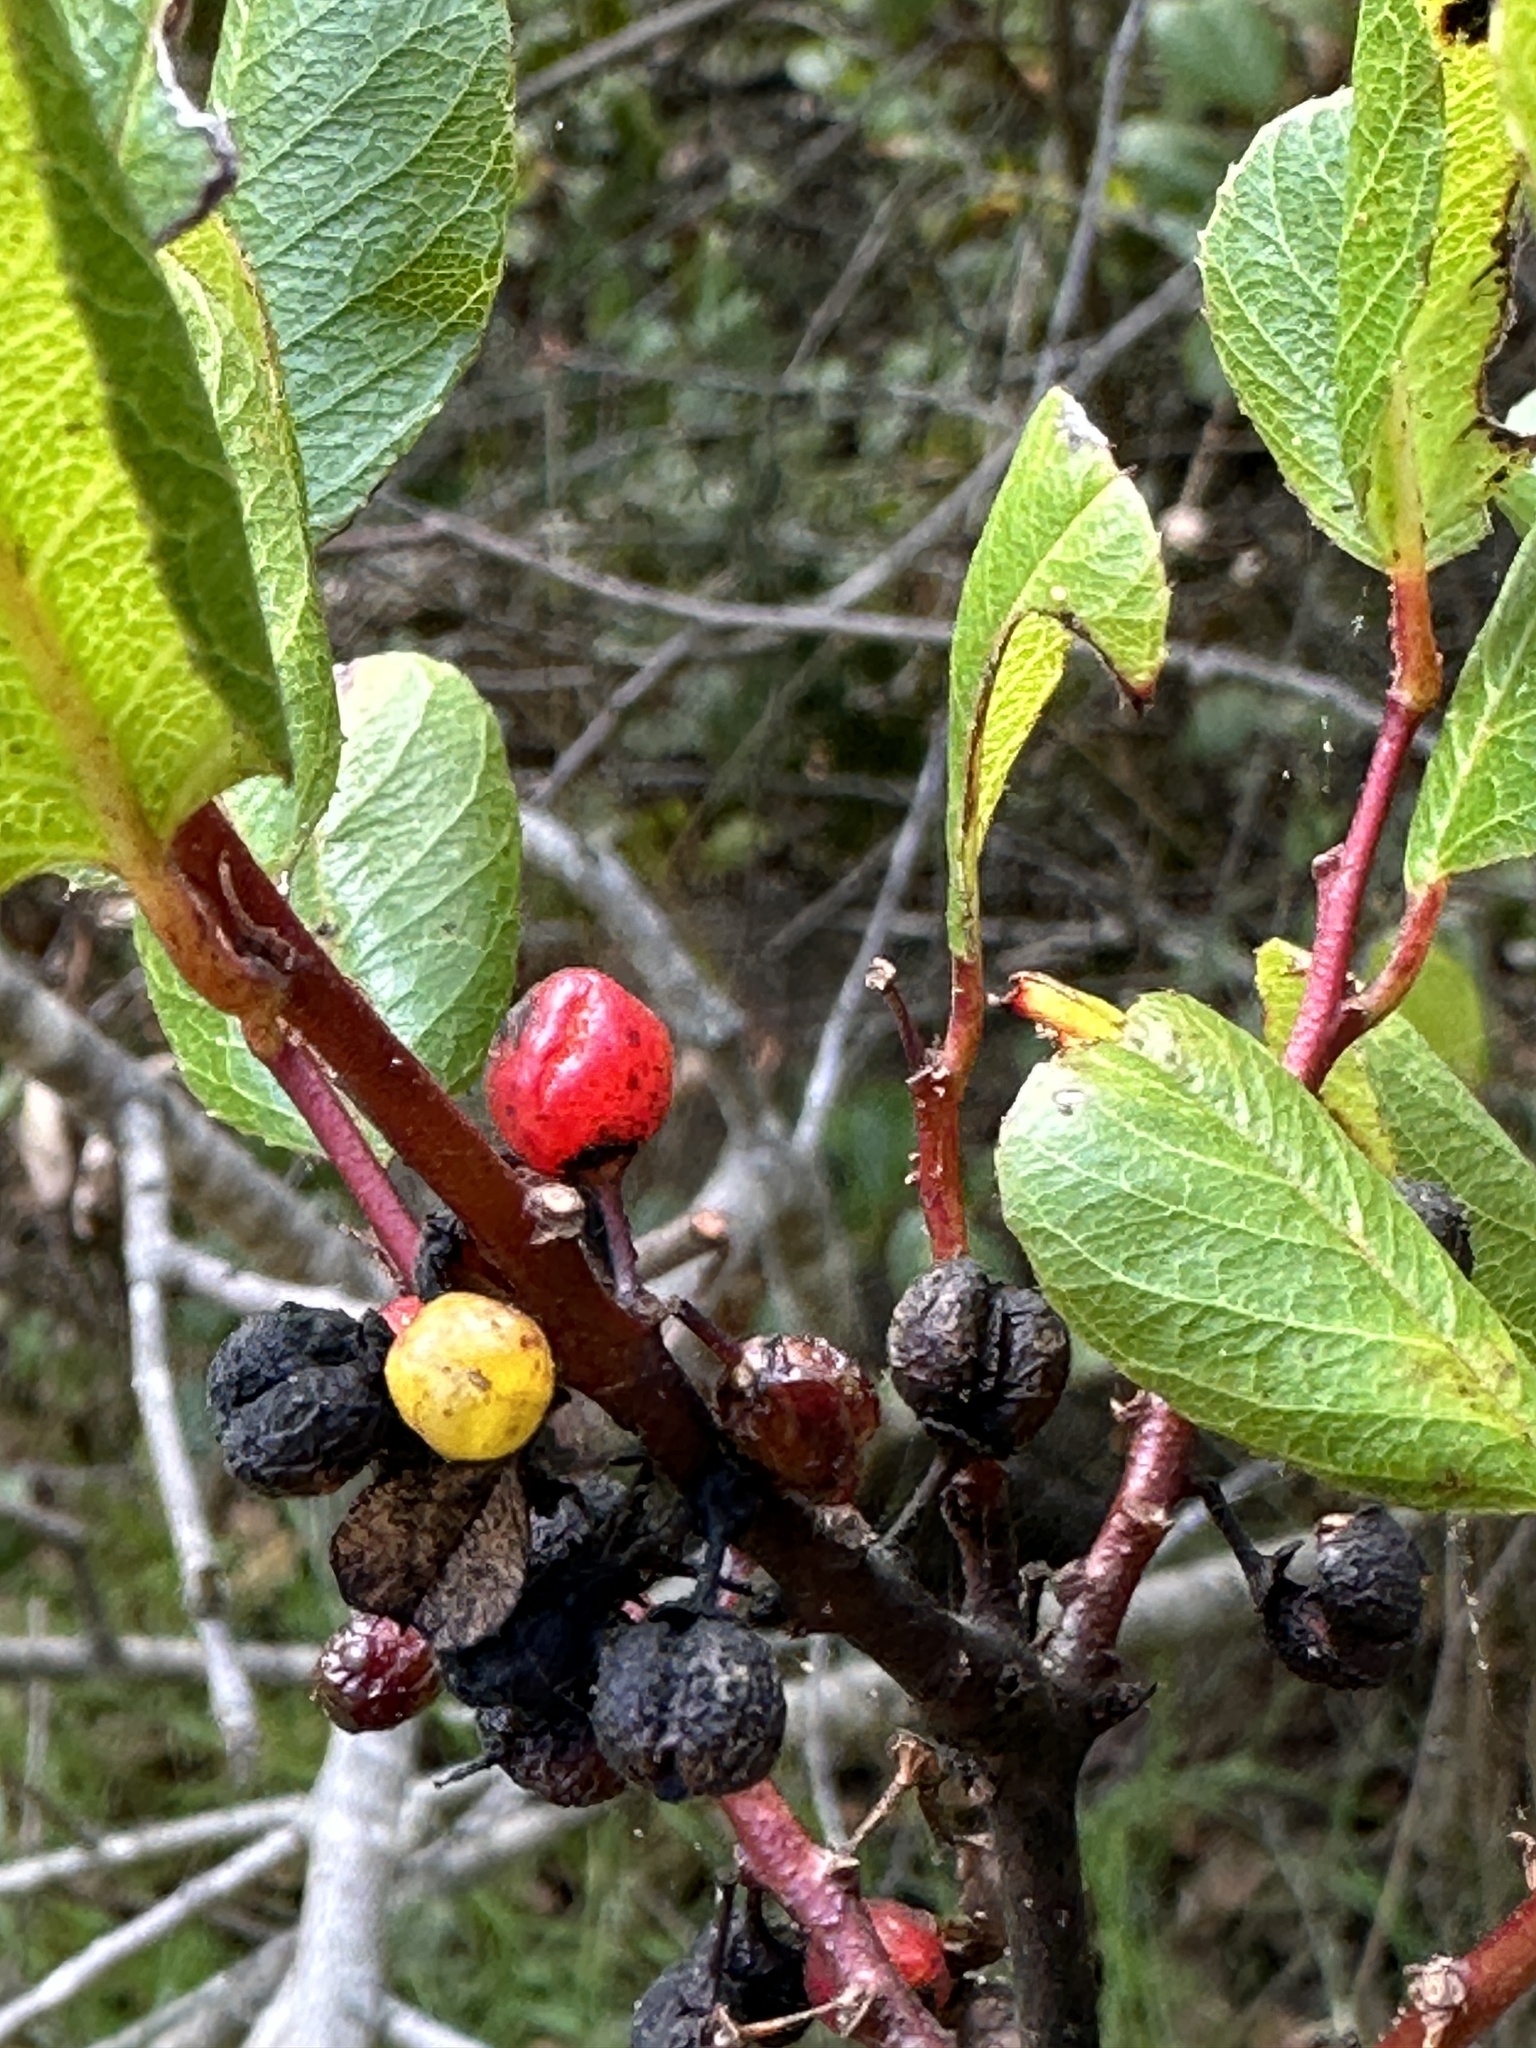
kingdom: Plantae
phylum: Tracheophyta
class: Magnoliopsida
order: Rosales
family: Rhamnaceae
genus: Endotropis
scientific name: Endotropis crocea
